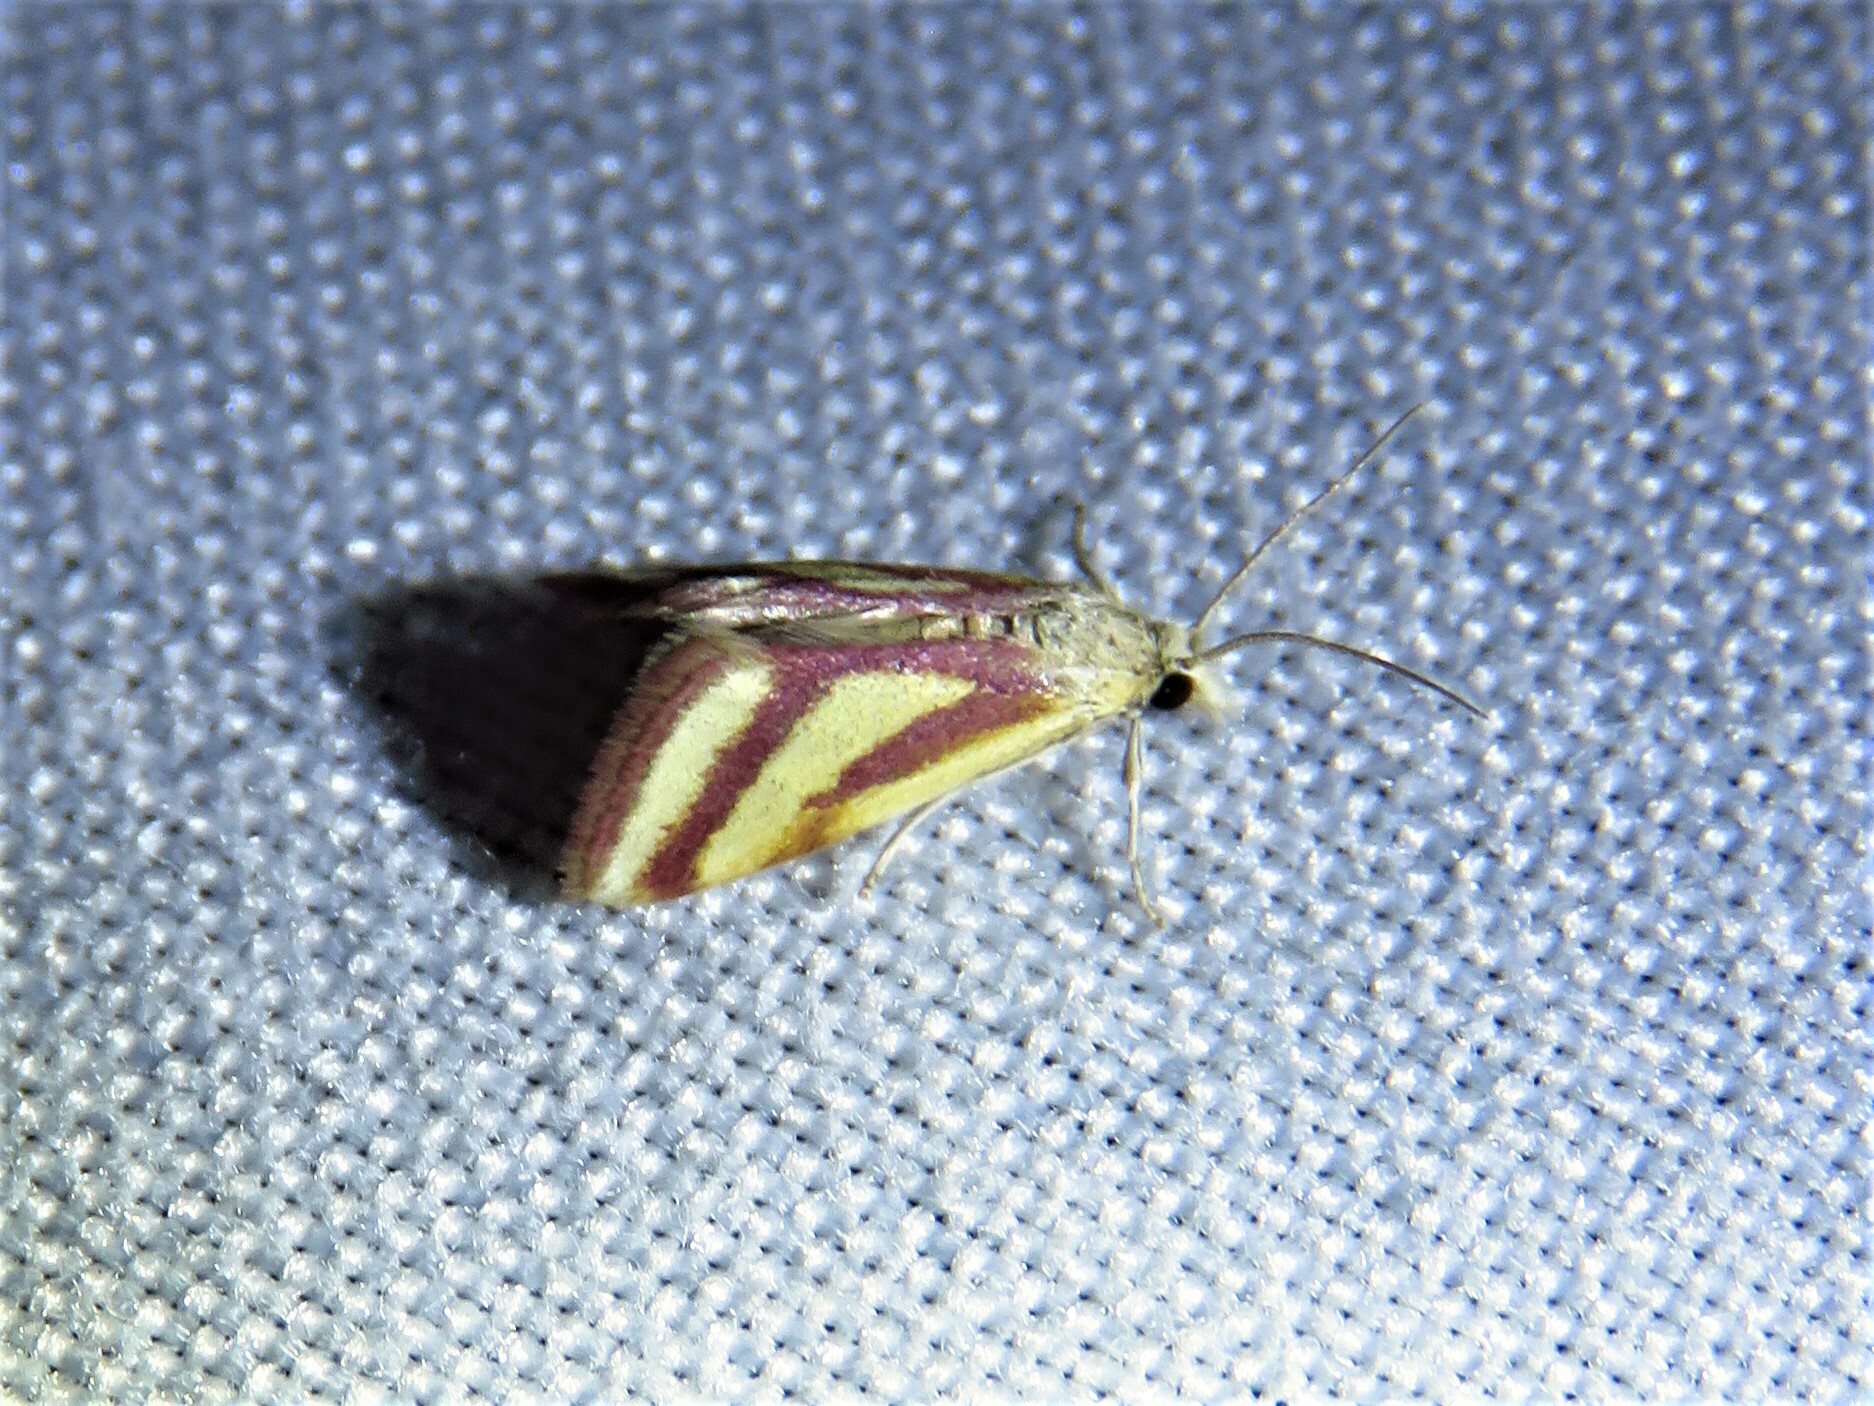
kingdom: Animalia
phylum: Arthropoda
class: Insecta
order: Lepidoptera
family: Crambidae
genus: Microtheoris
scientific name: Microtheoris vibicalis
